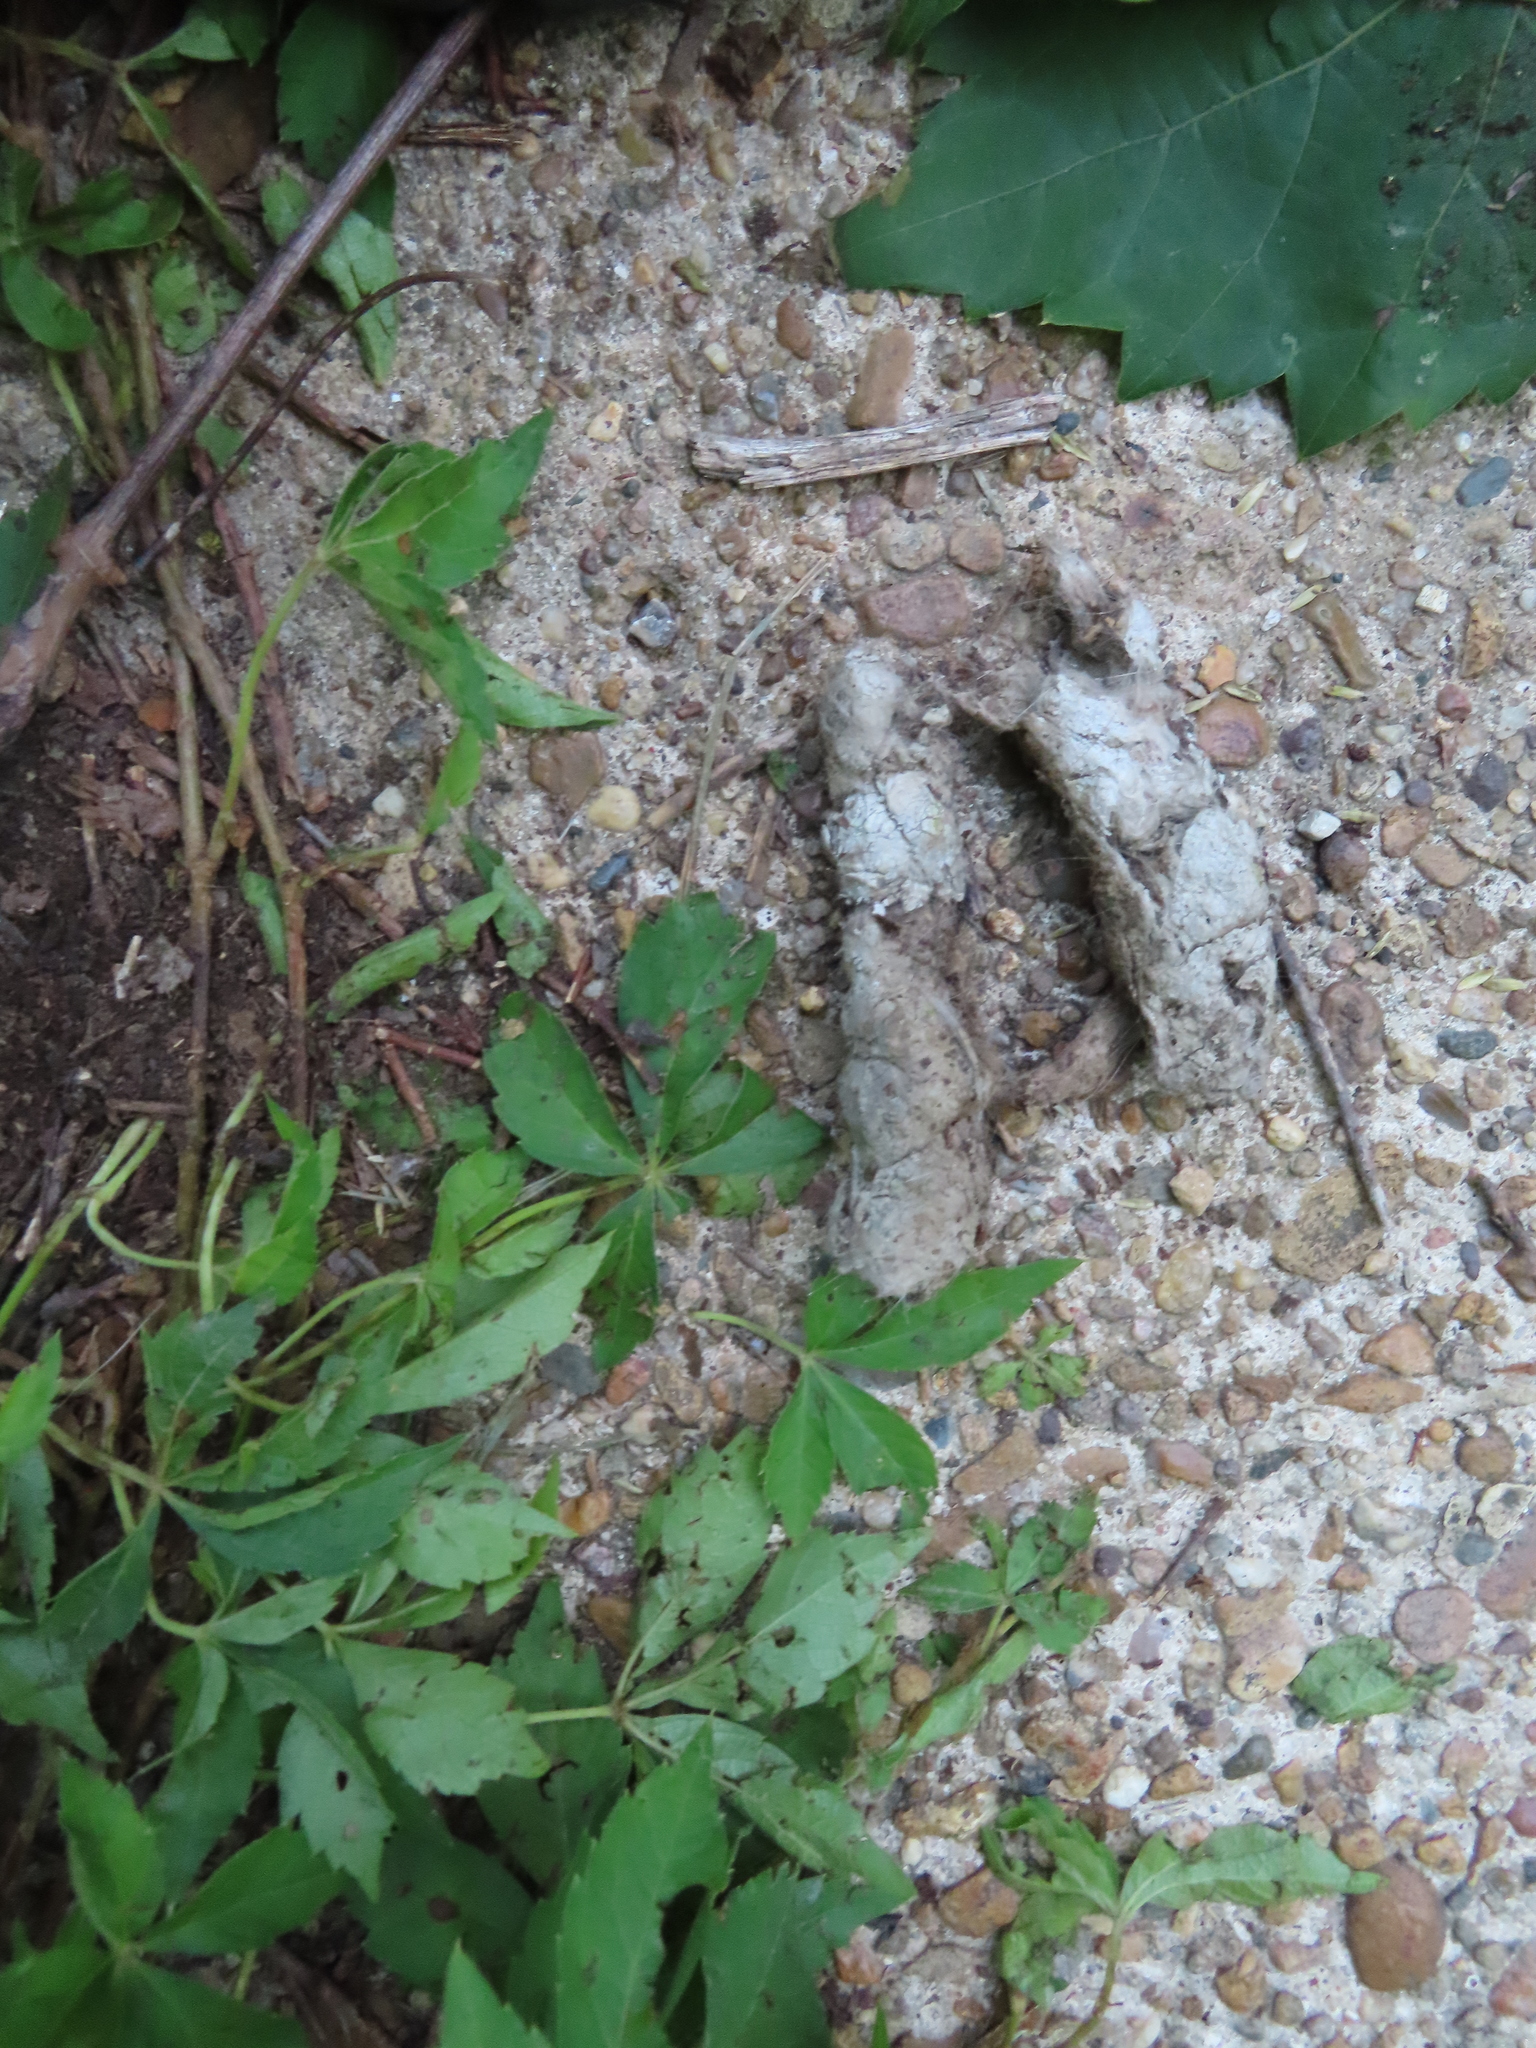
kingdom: Plantae
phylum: Tracheophyta
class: Magnoliopsida
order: Vitales
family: Vitaceae
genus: Parthenocissus
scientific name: Parthenocissus quinquefolia
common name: Virginia-creeper
